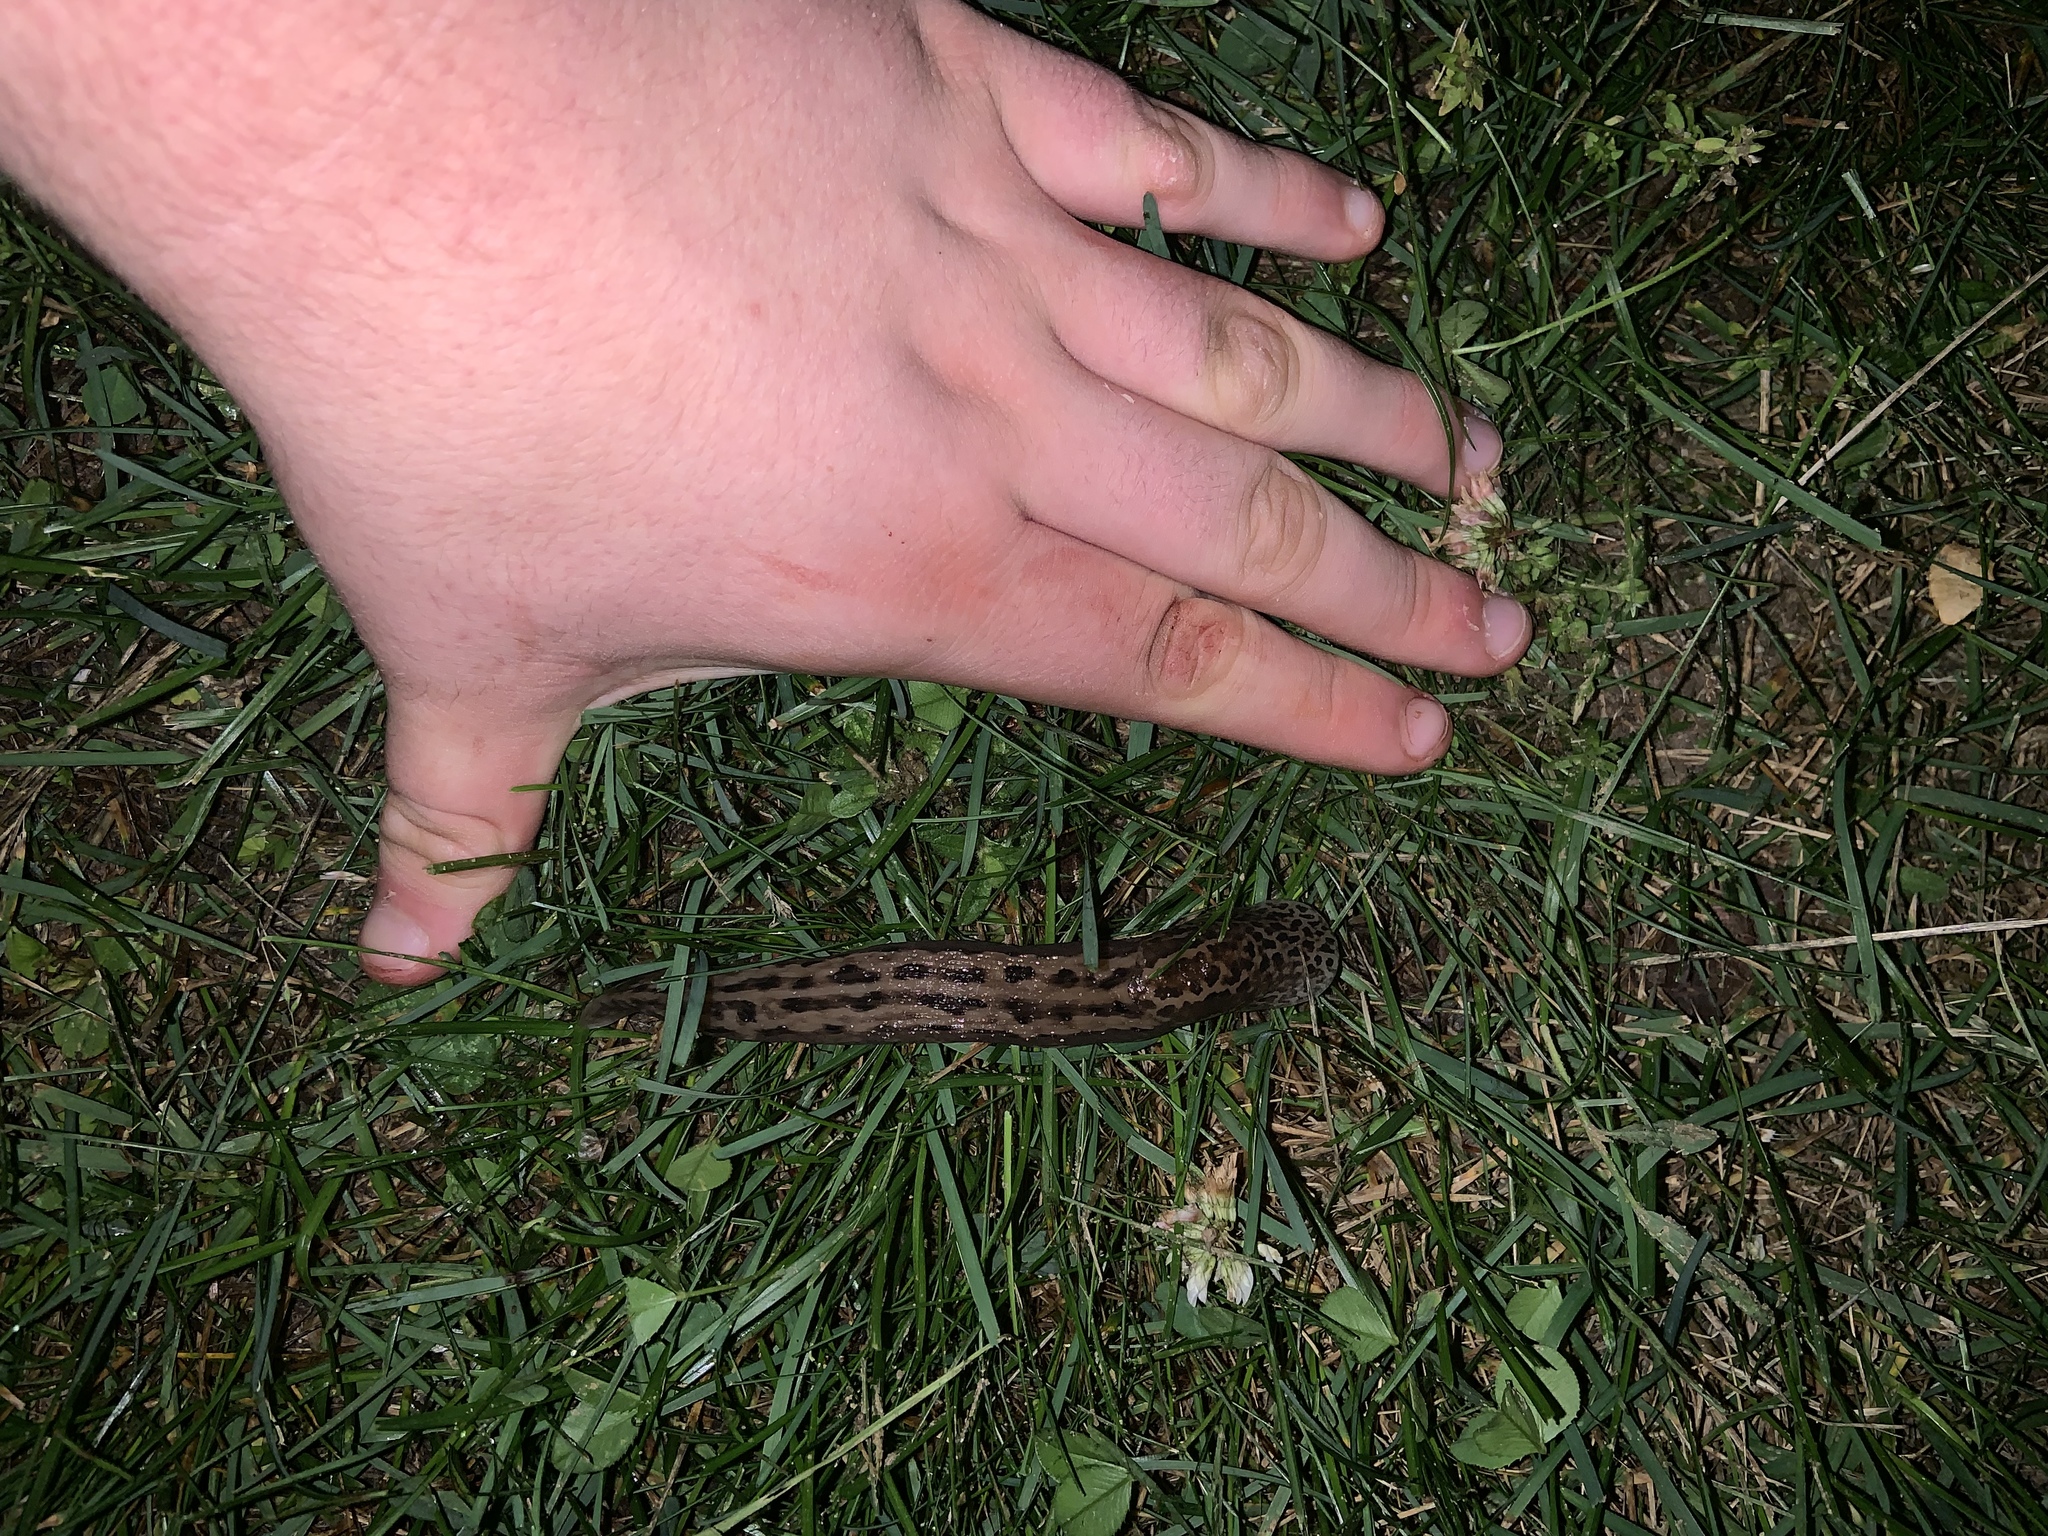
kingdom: Animalia
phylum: Mollusca
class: Gastropoda
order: Stylommatophora
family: Limacidae
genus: Limax
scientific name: Limax maximus
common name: Great grey slug
